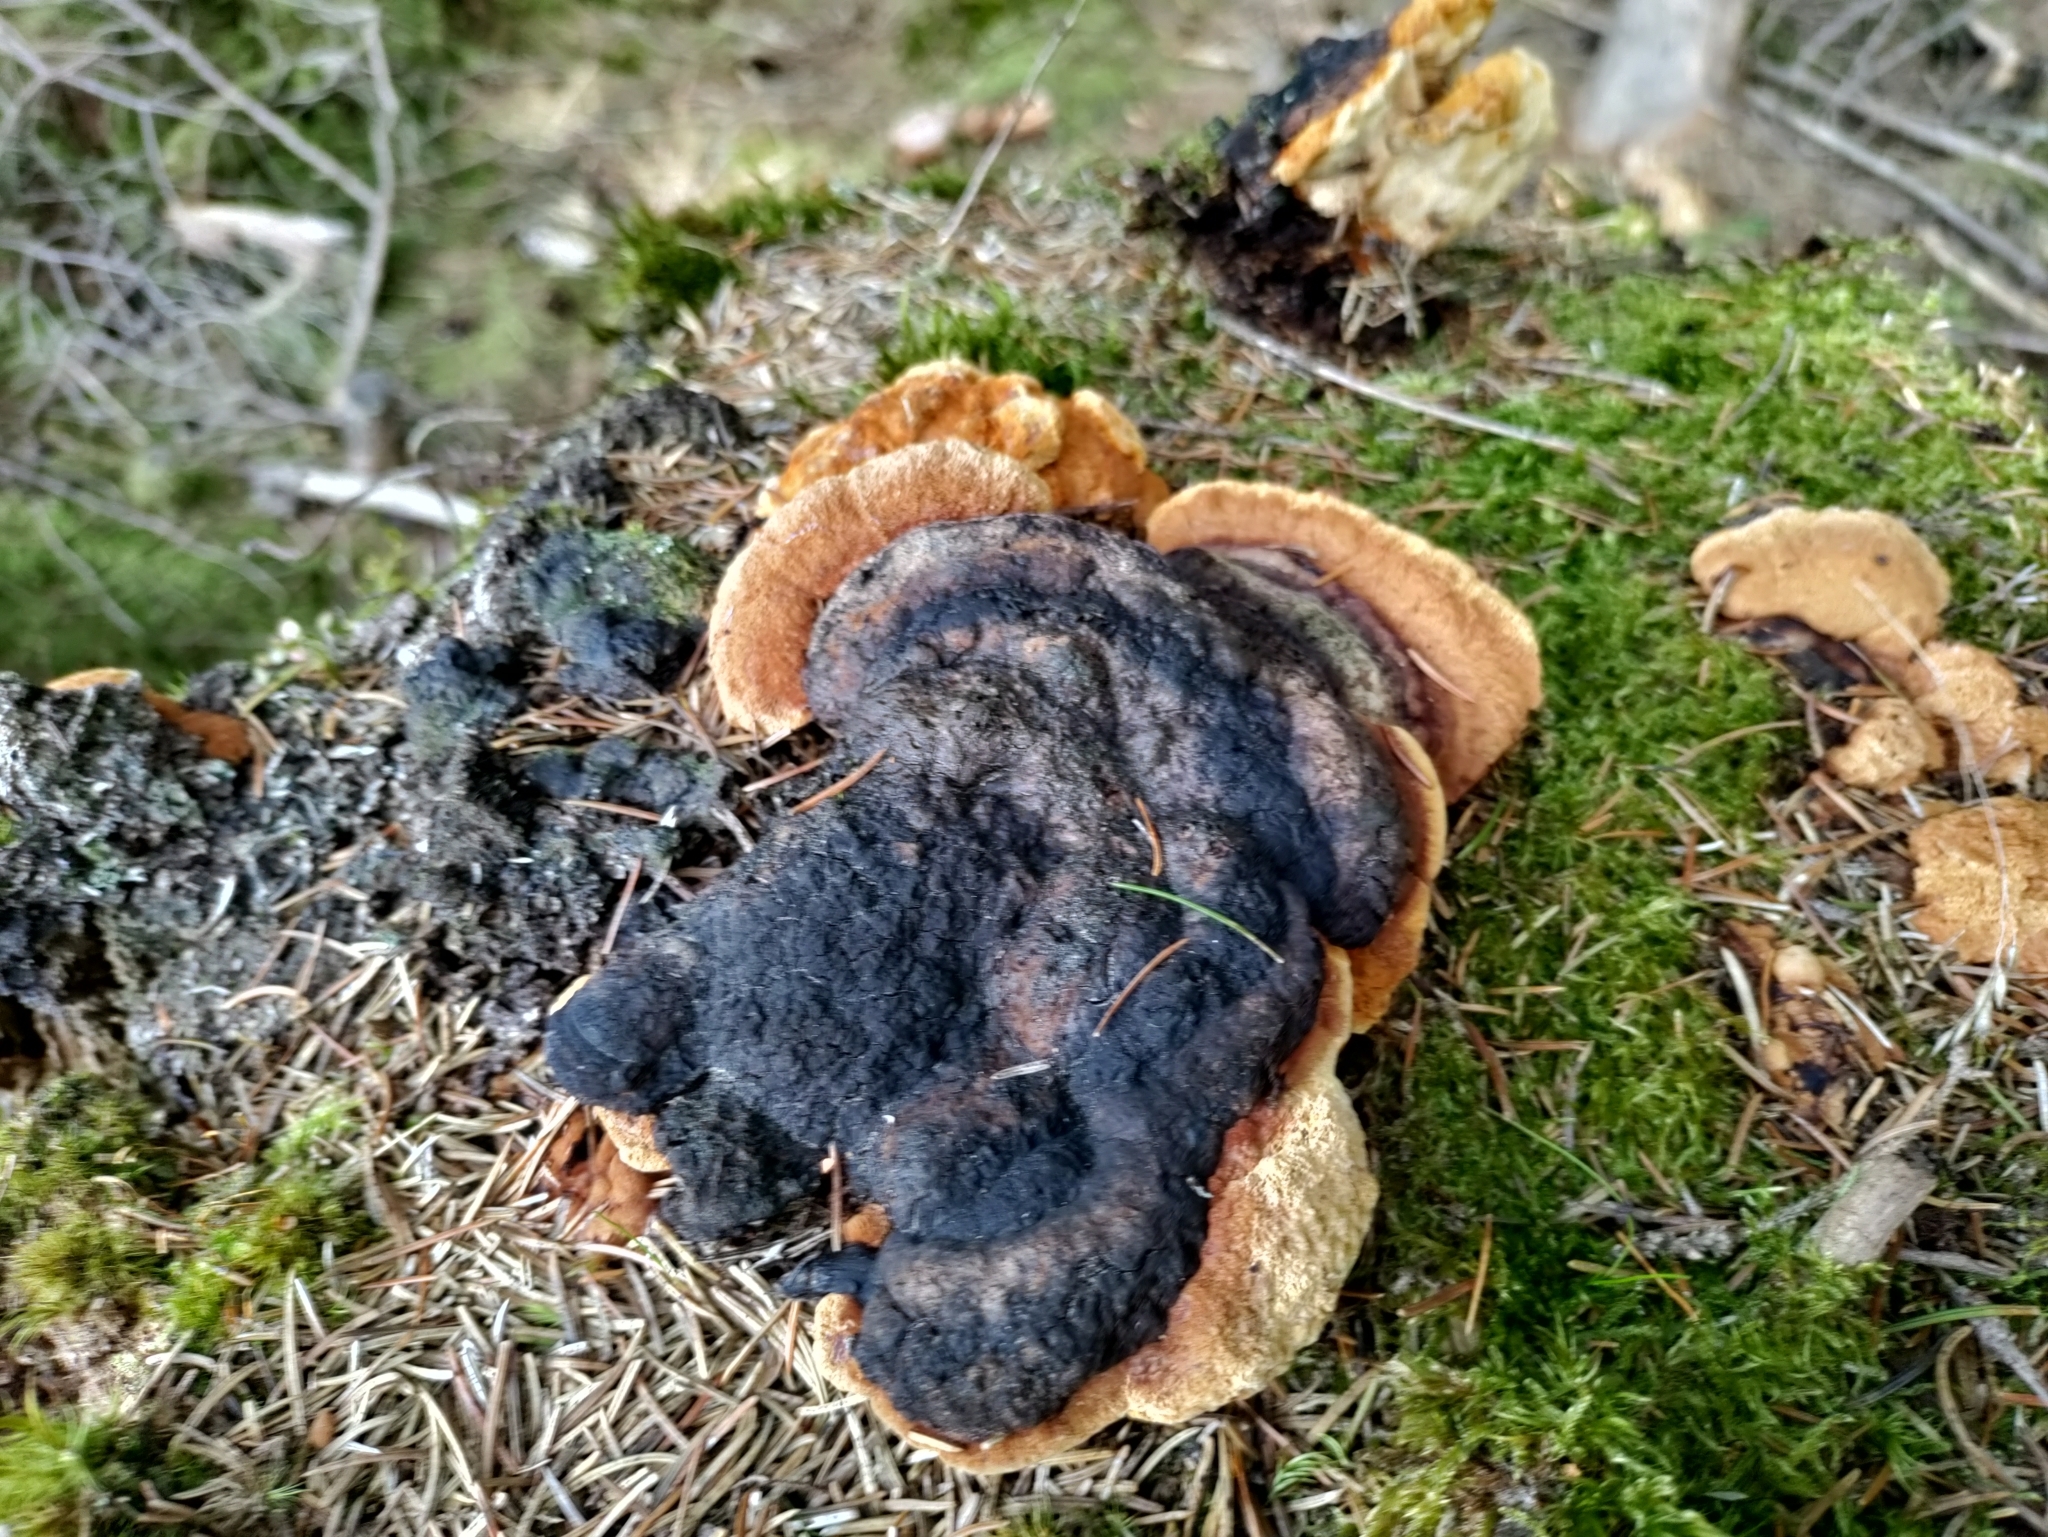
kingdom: Fungi
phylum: Basidiomycota
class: Agaricomycetes
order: Gloeophyllales
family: Gloeophyllaceae
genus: Gloeophyllum
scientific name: Gloeophyllum odoratum
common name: Anise mazegill
